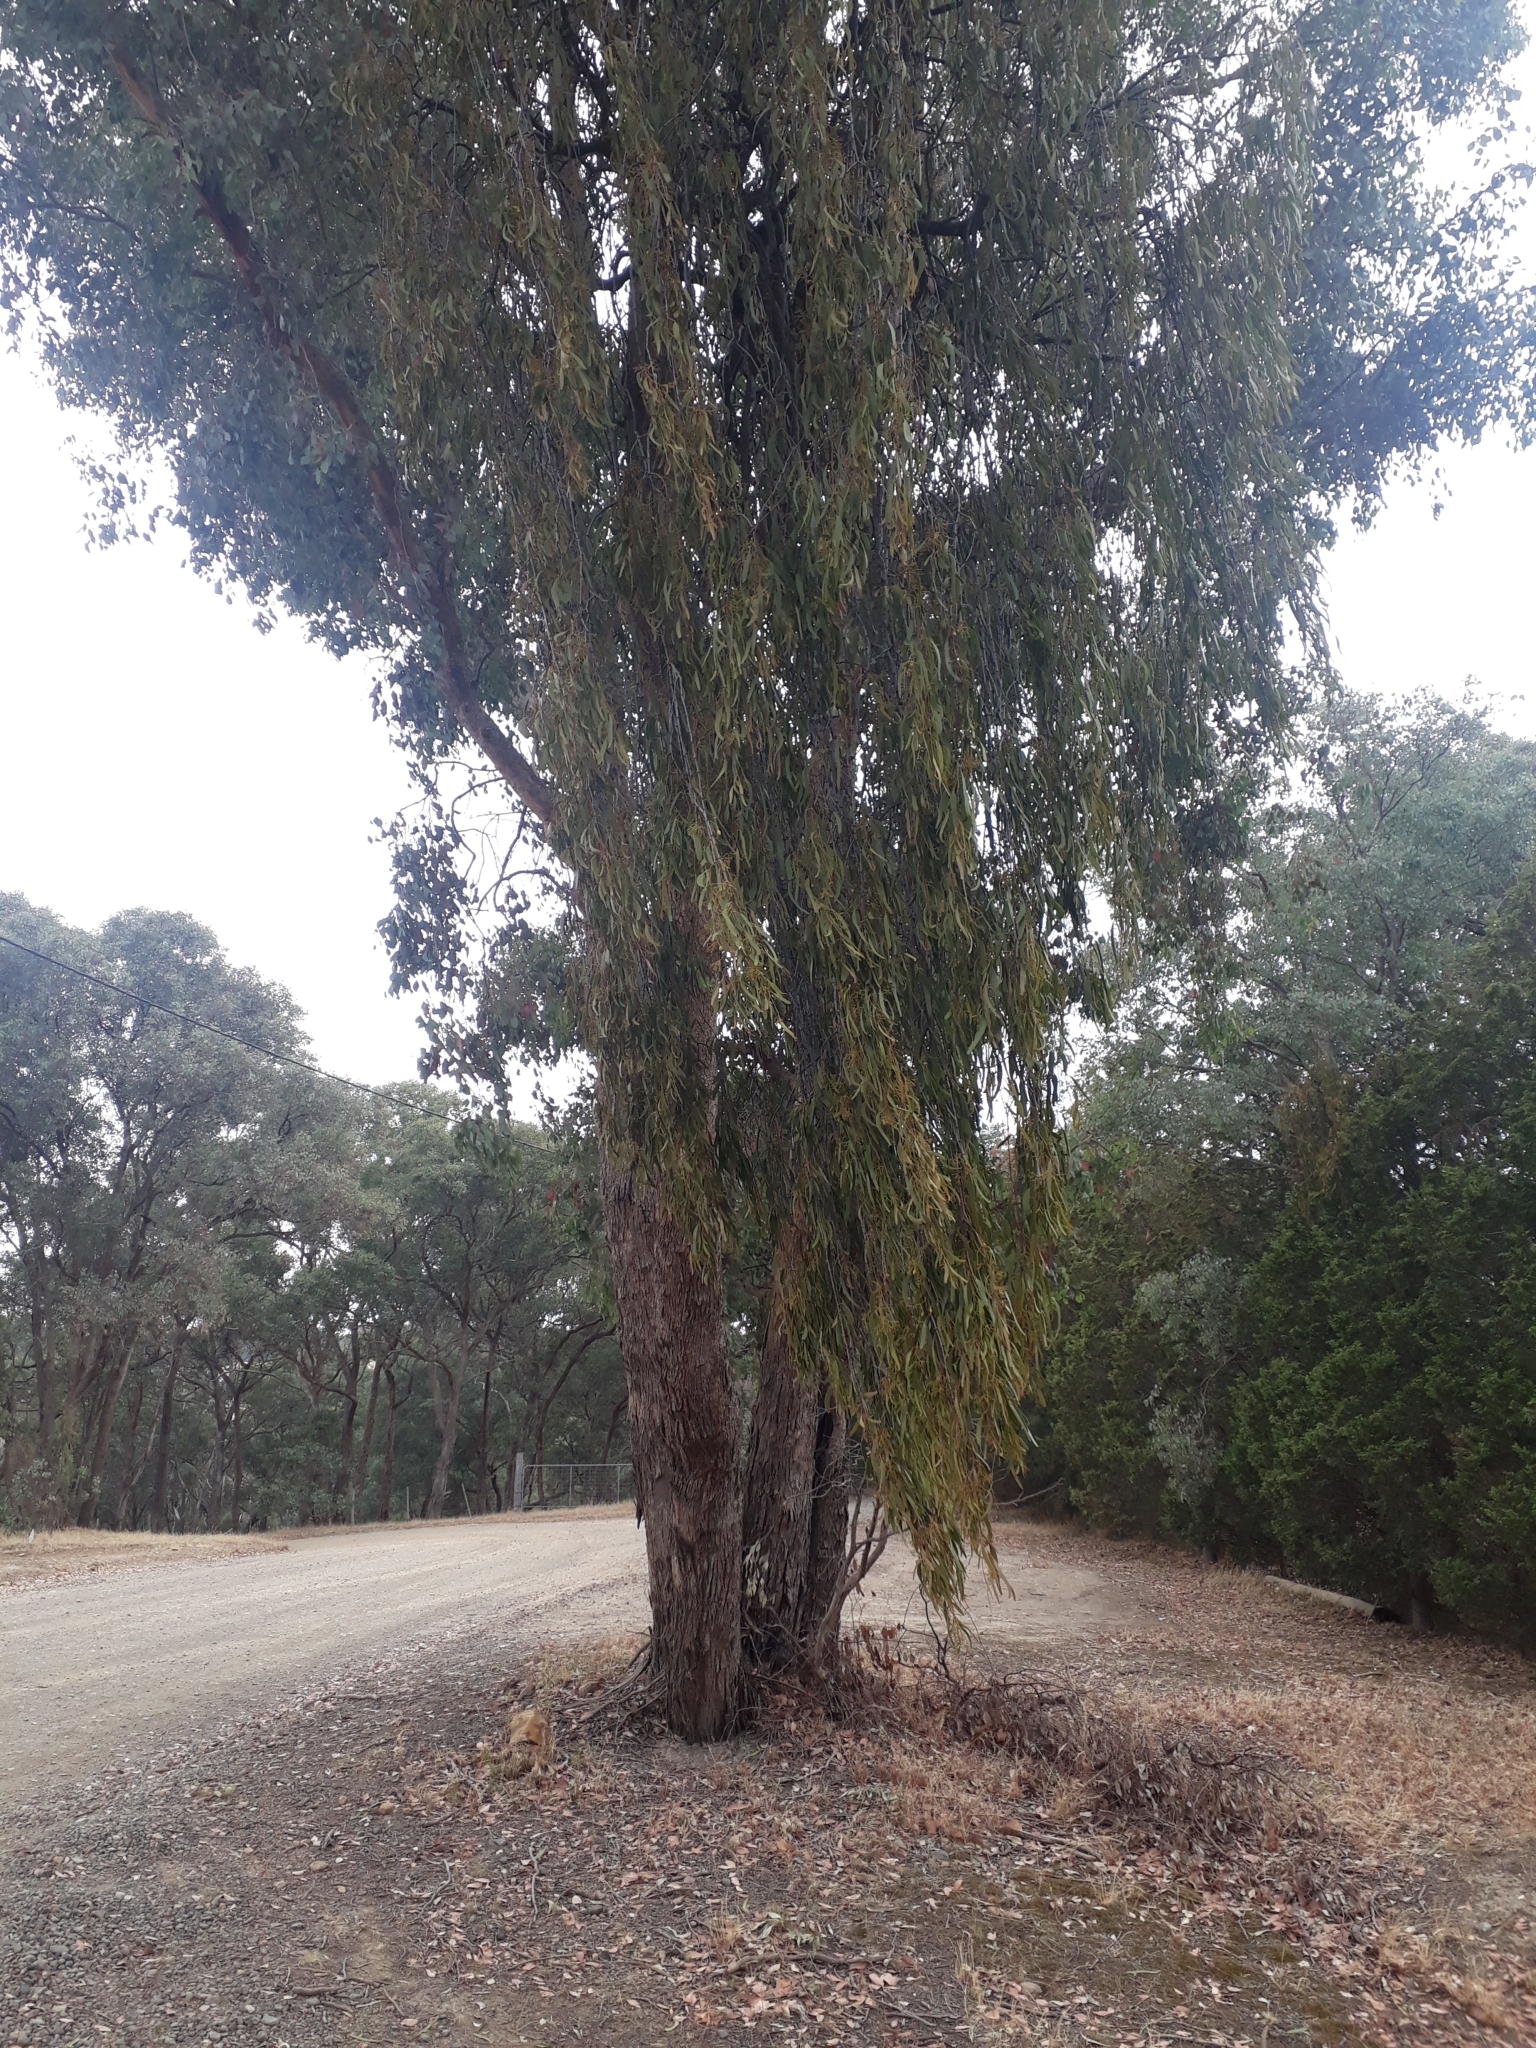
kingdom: Plantae
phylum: Tracheophyta
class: Magnoliopsida
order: Santalales
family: Loranthaceae
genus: Amyema
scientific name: Amyema miquelii
